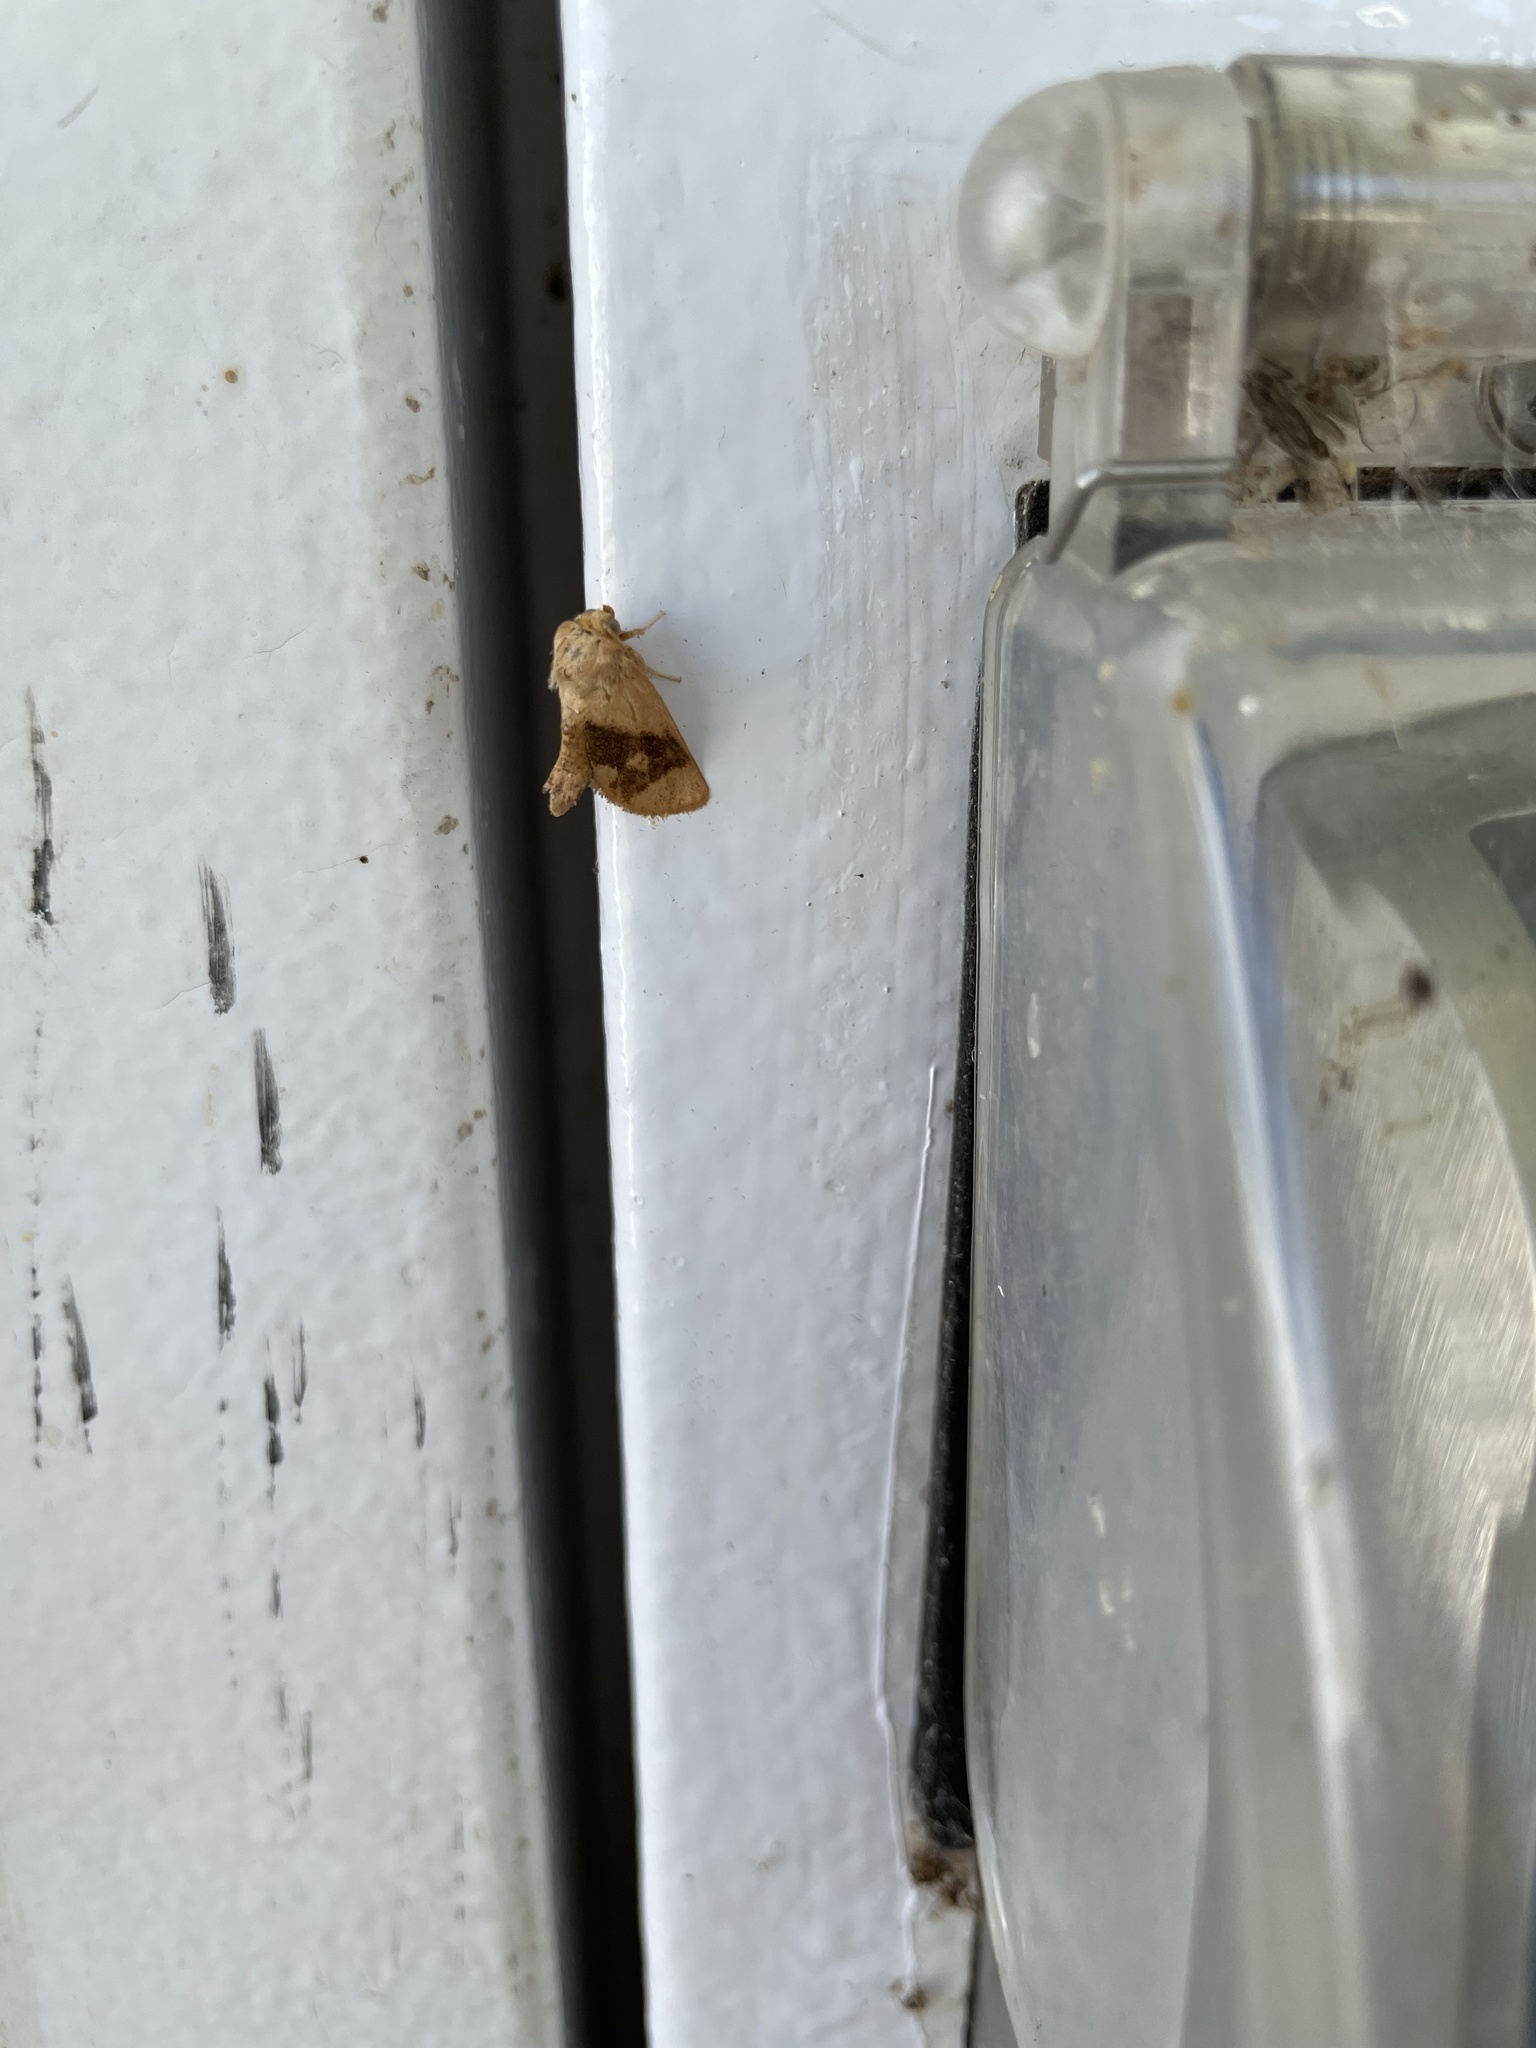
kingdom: Animalia
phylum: Arthropoda
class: Insecta
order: Lepidoptera
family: Limacodidae
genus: Apoda
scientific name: Apoda y-inversa
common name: Yellow-collared slug moth
